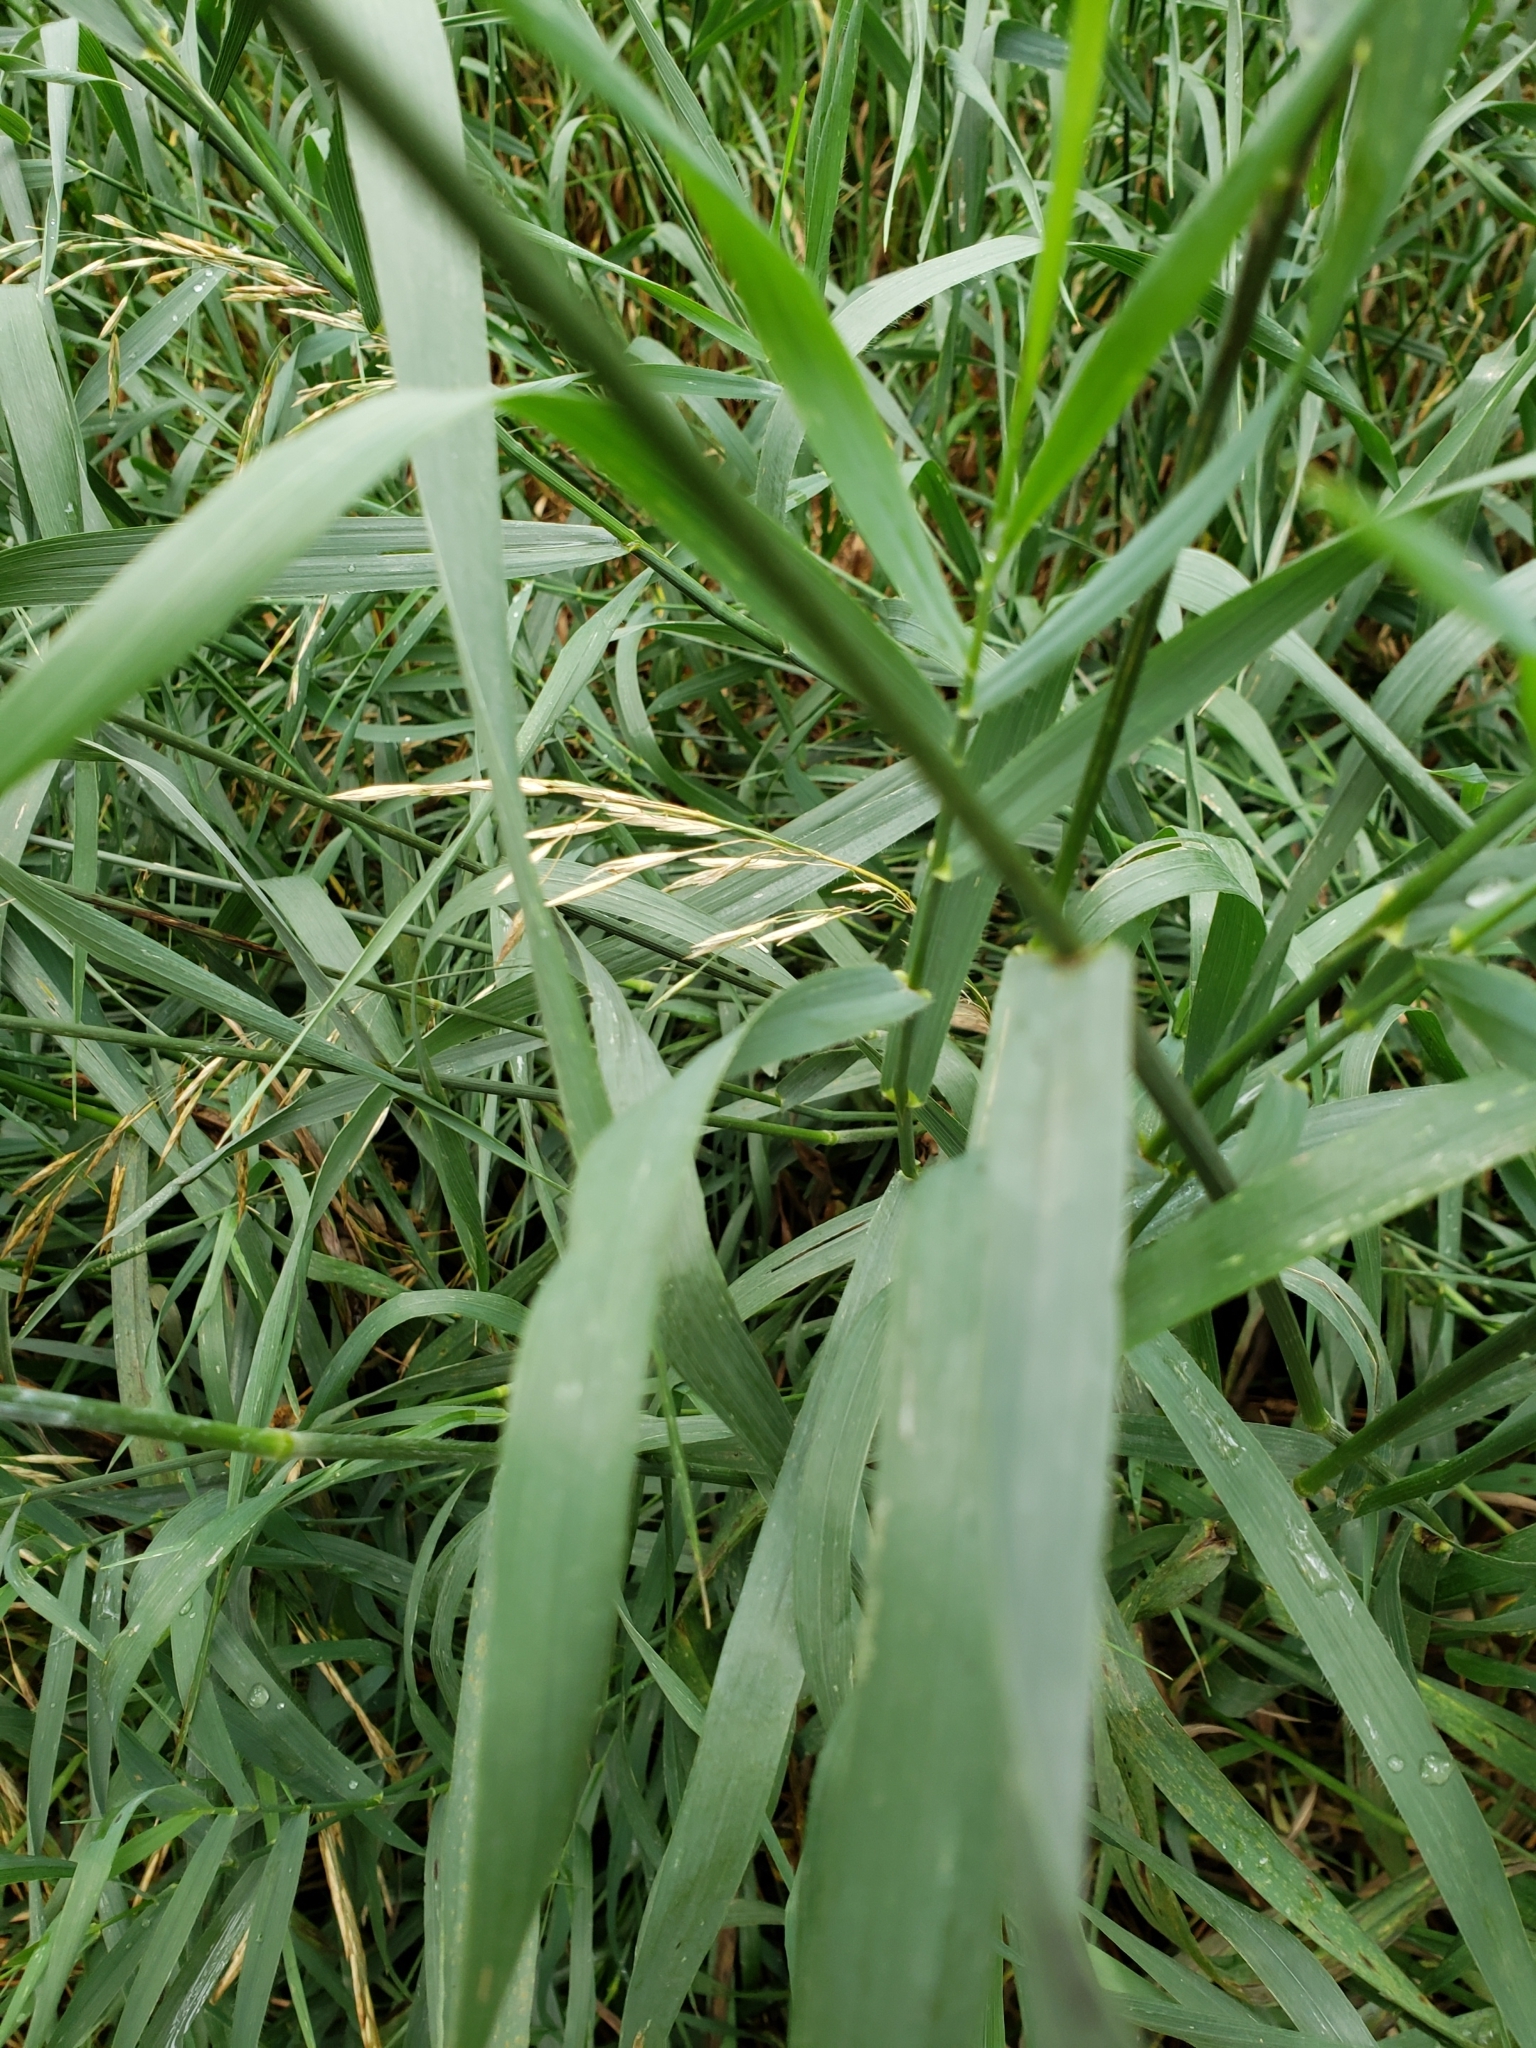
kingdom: Plantae
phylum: Tracheophyta
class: Liliopsida
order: Poales
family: Poaceae
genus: Bromus
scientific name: Bromus inermis
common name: Smooth brome
